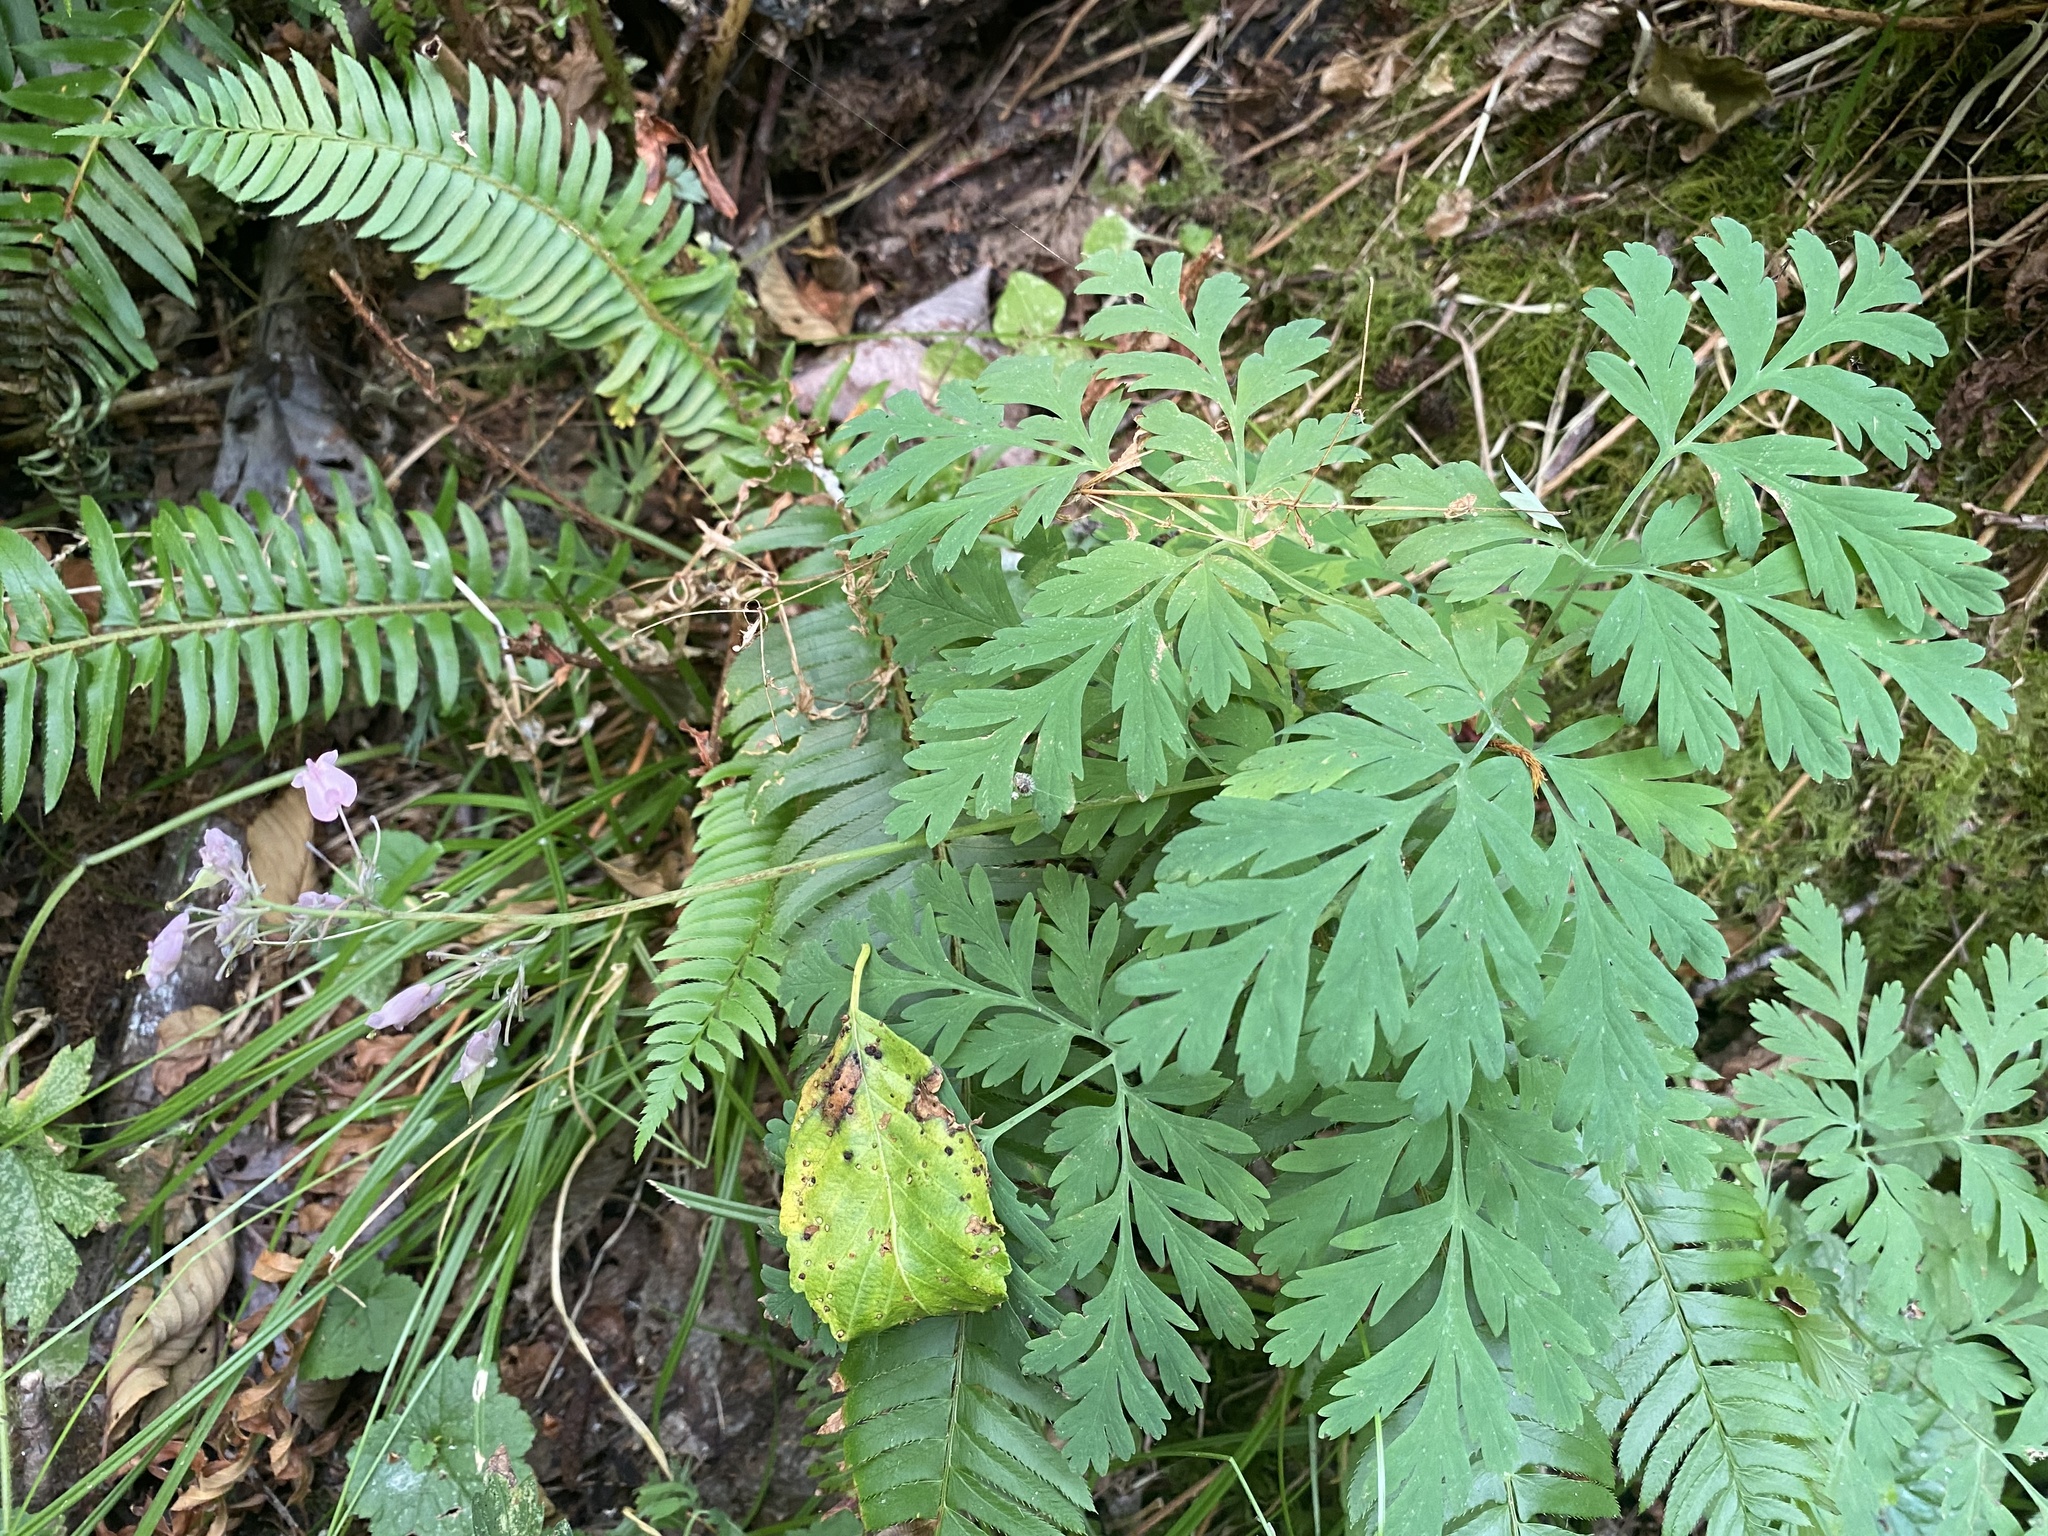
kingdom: Plantae
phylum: Tracheophyta
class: Magnoliopsida
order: Ranunculales
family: Papaveraceae
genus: Dicentra
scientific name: Dicentra formosa
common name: Bleeding-heart
